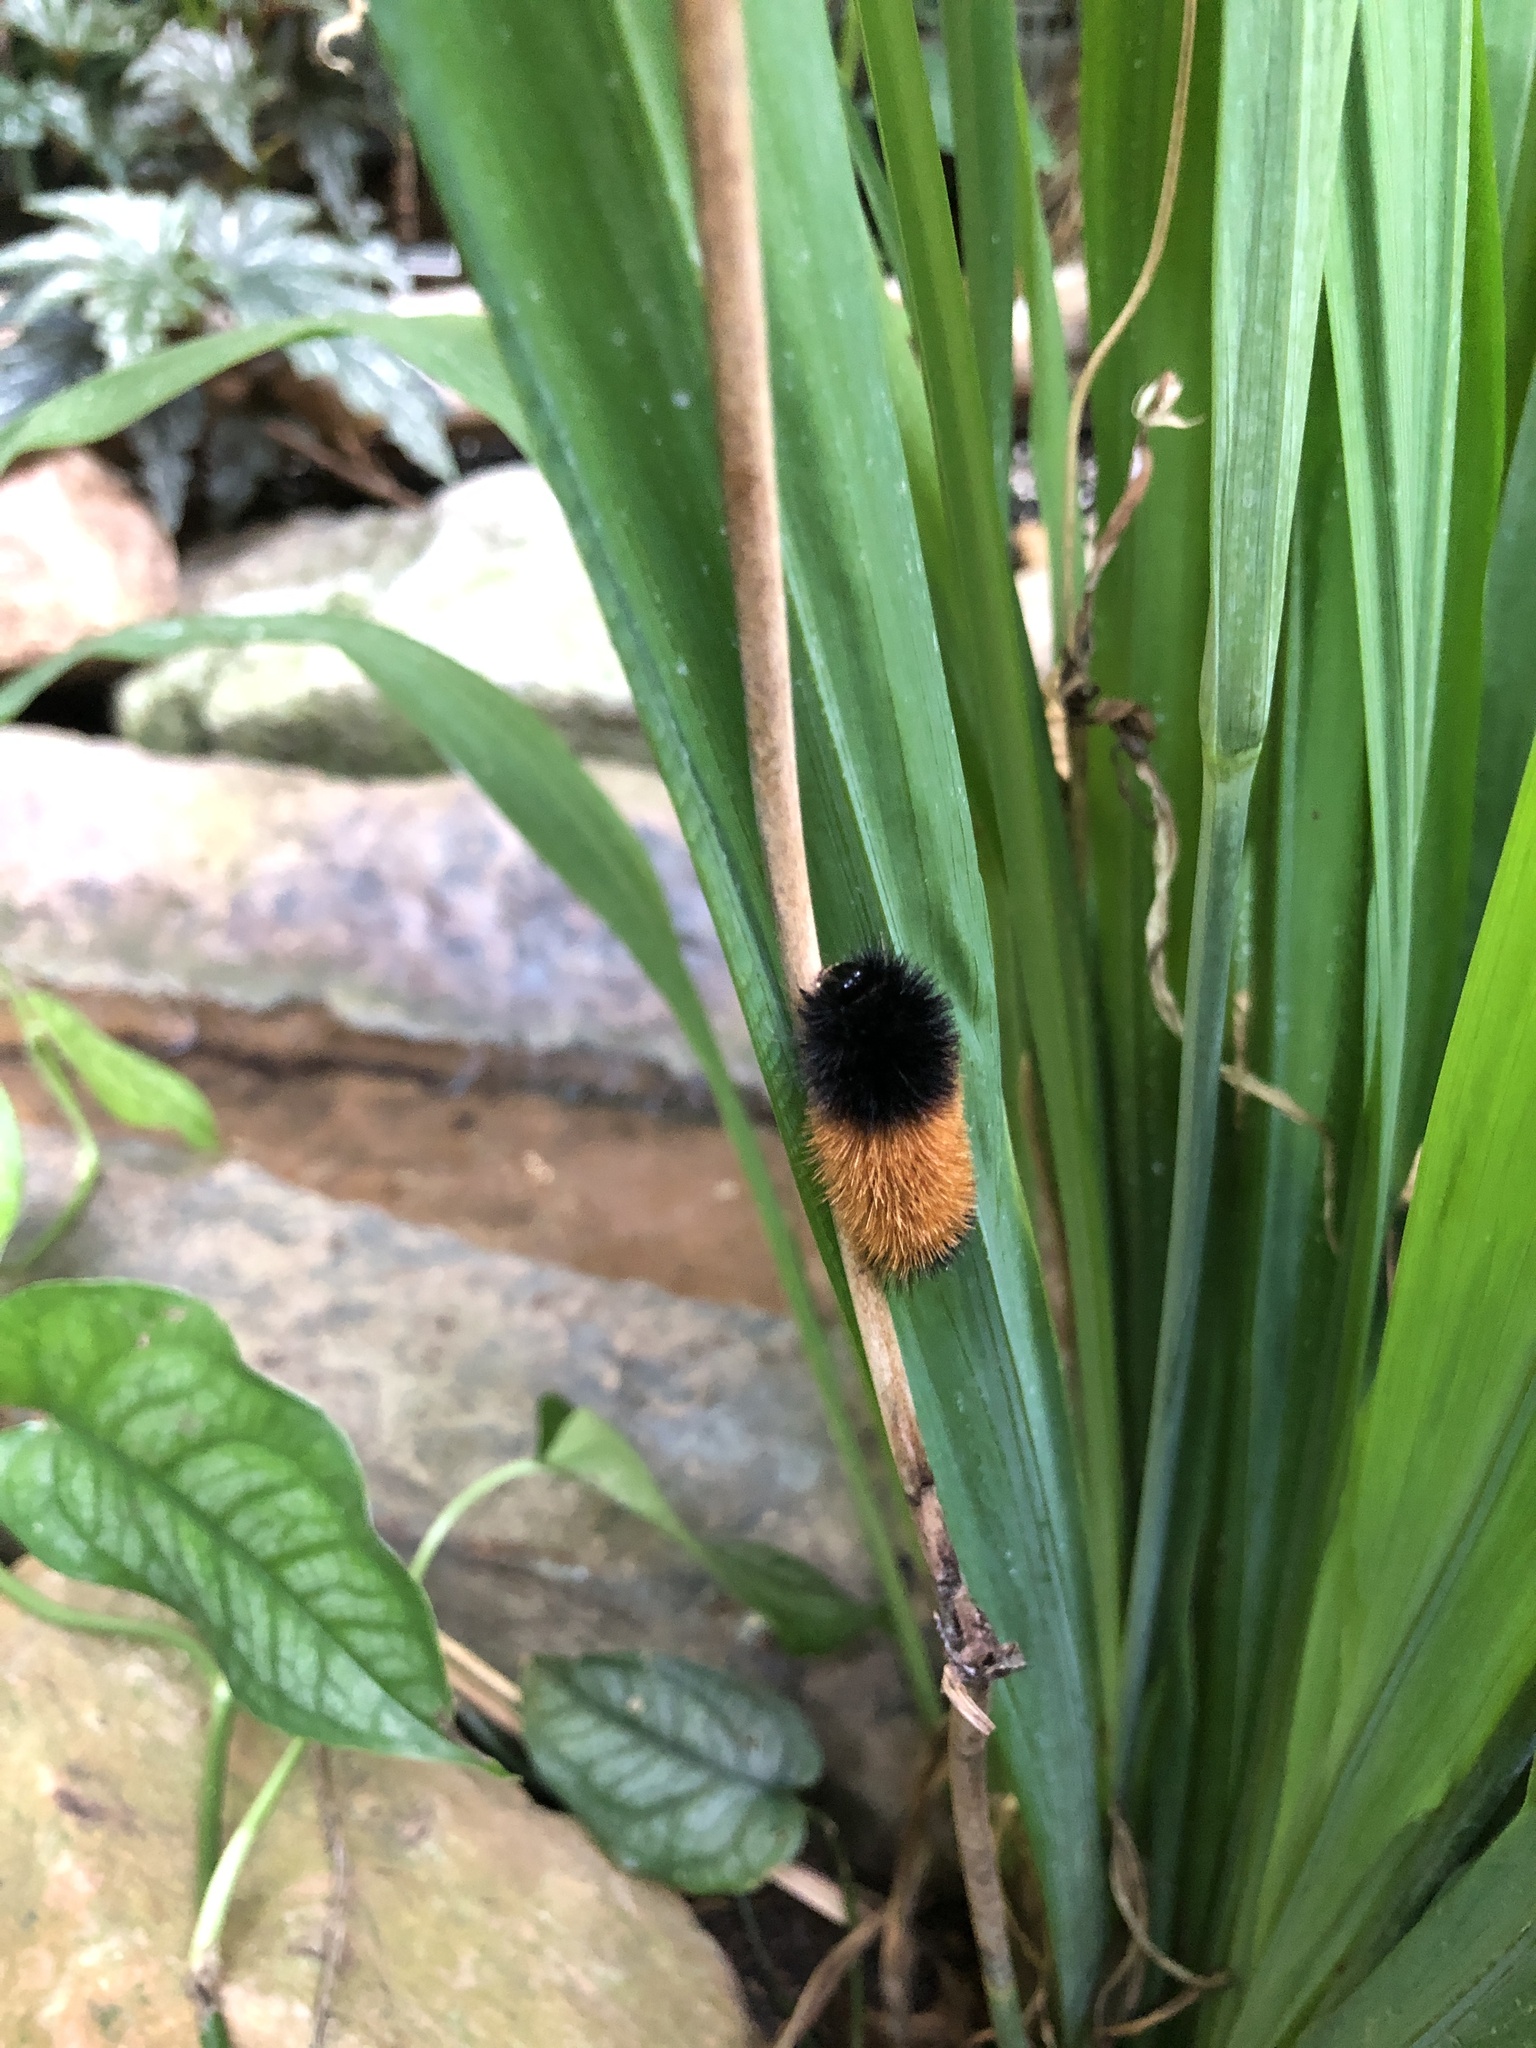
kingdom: Animalia
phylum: Arthropoda
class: Insecta
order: Lepidoptera
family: Erebidae
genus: Pyrrharctia
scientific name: Pyrrharctia isabella
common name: Isabella tiger moth
